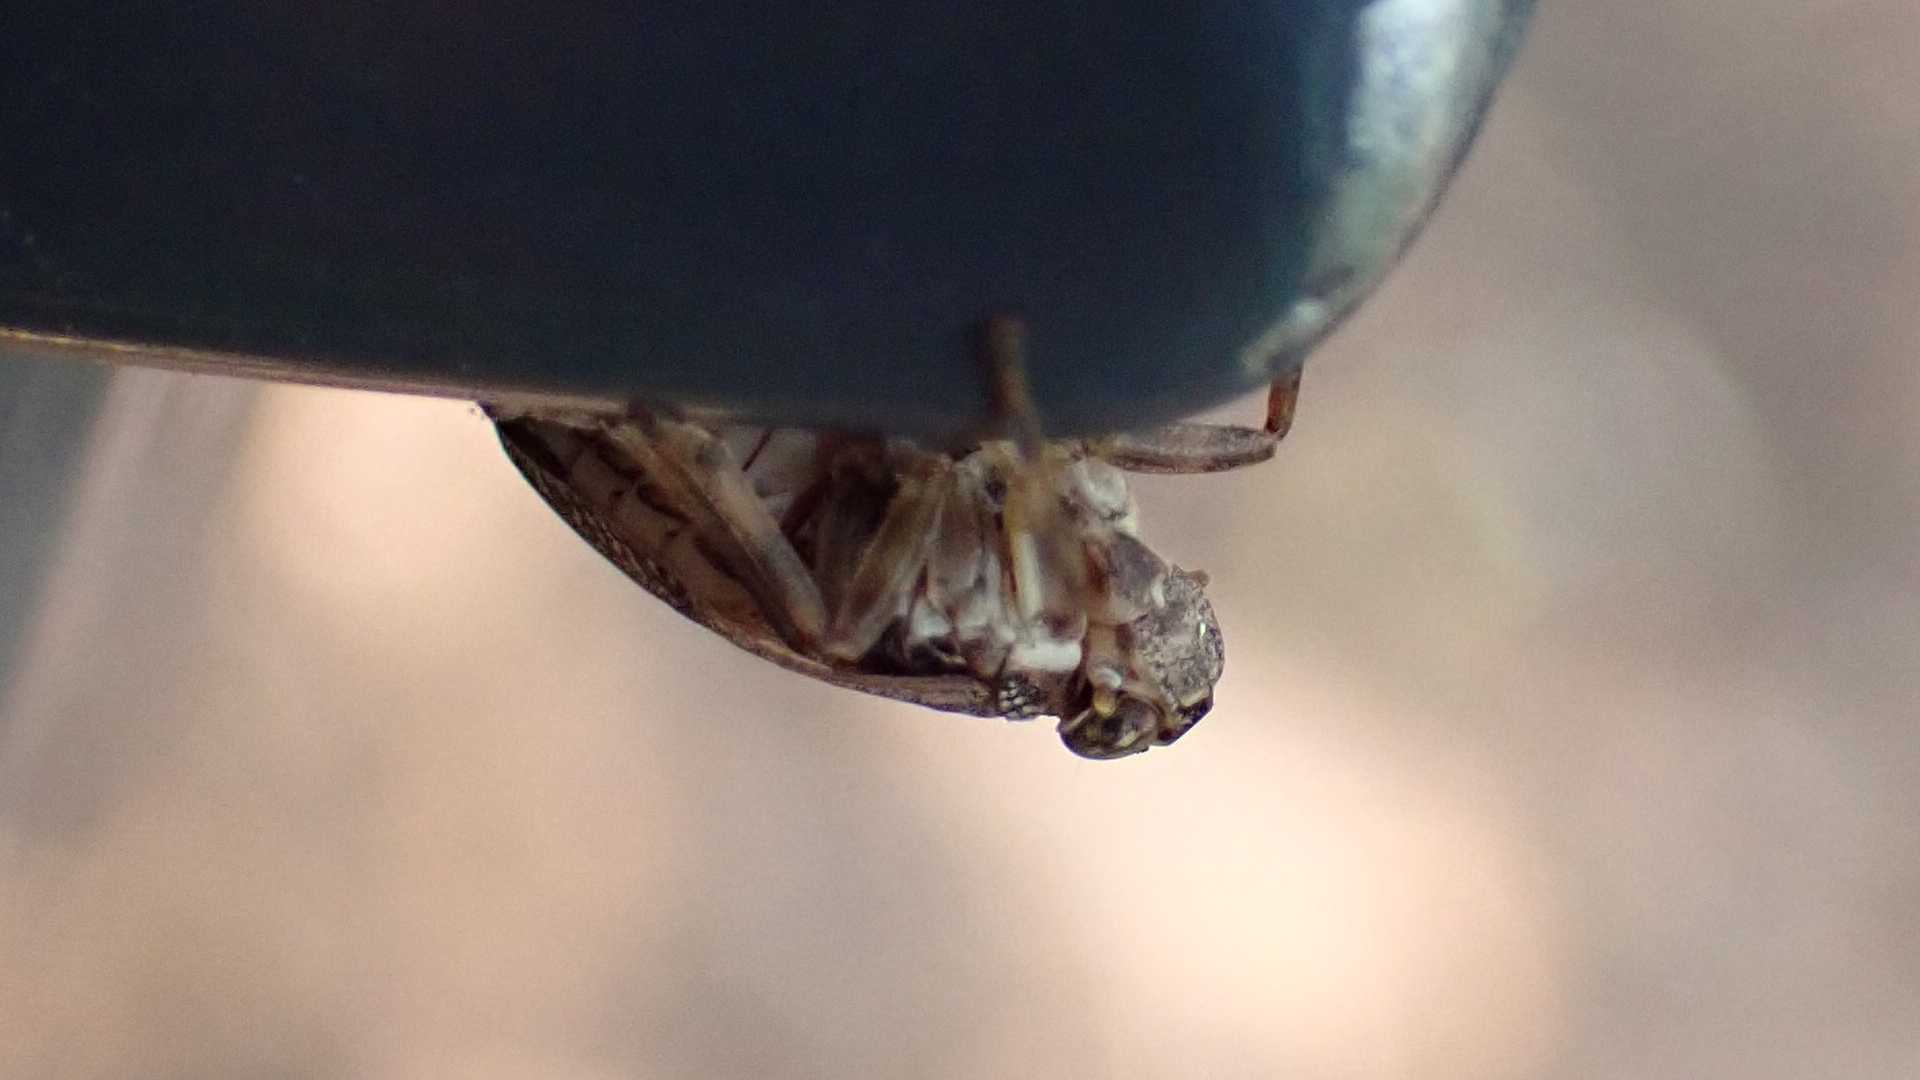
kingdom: Animalia
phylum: Arthropoda
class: Insecta
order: Hemiptera
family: Issidae
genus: Issus
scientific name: Issus coleoptratus
